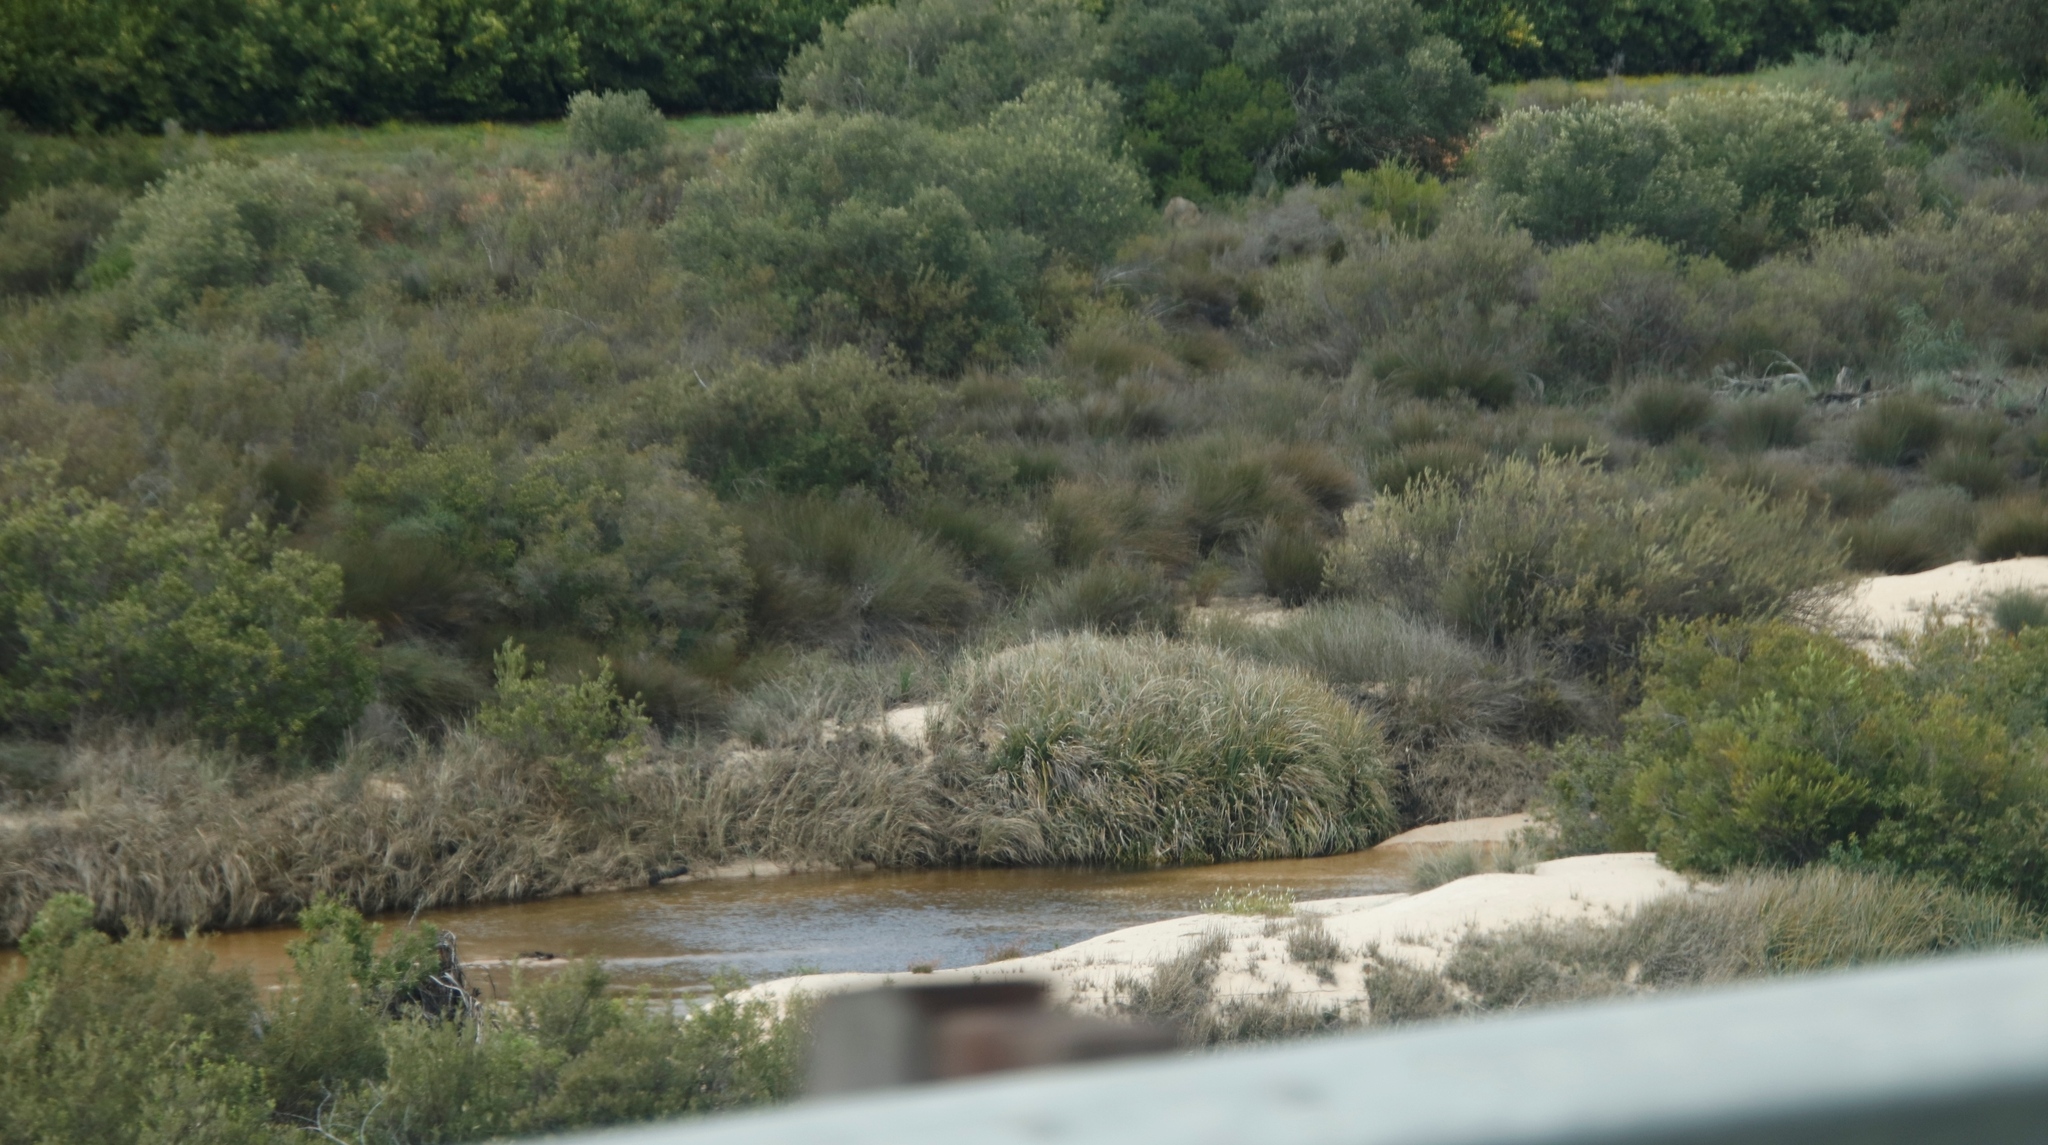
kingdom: Plantae
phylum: Tracheophyta
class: Liliopsida
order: Poales
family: Thurniaceae
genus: Prionium
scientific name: Prionium serratum
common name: Palmiet
